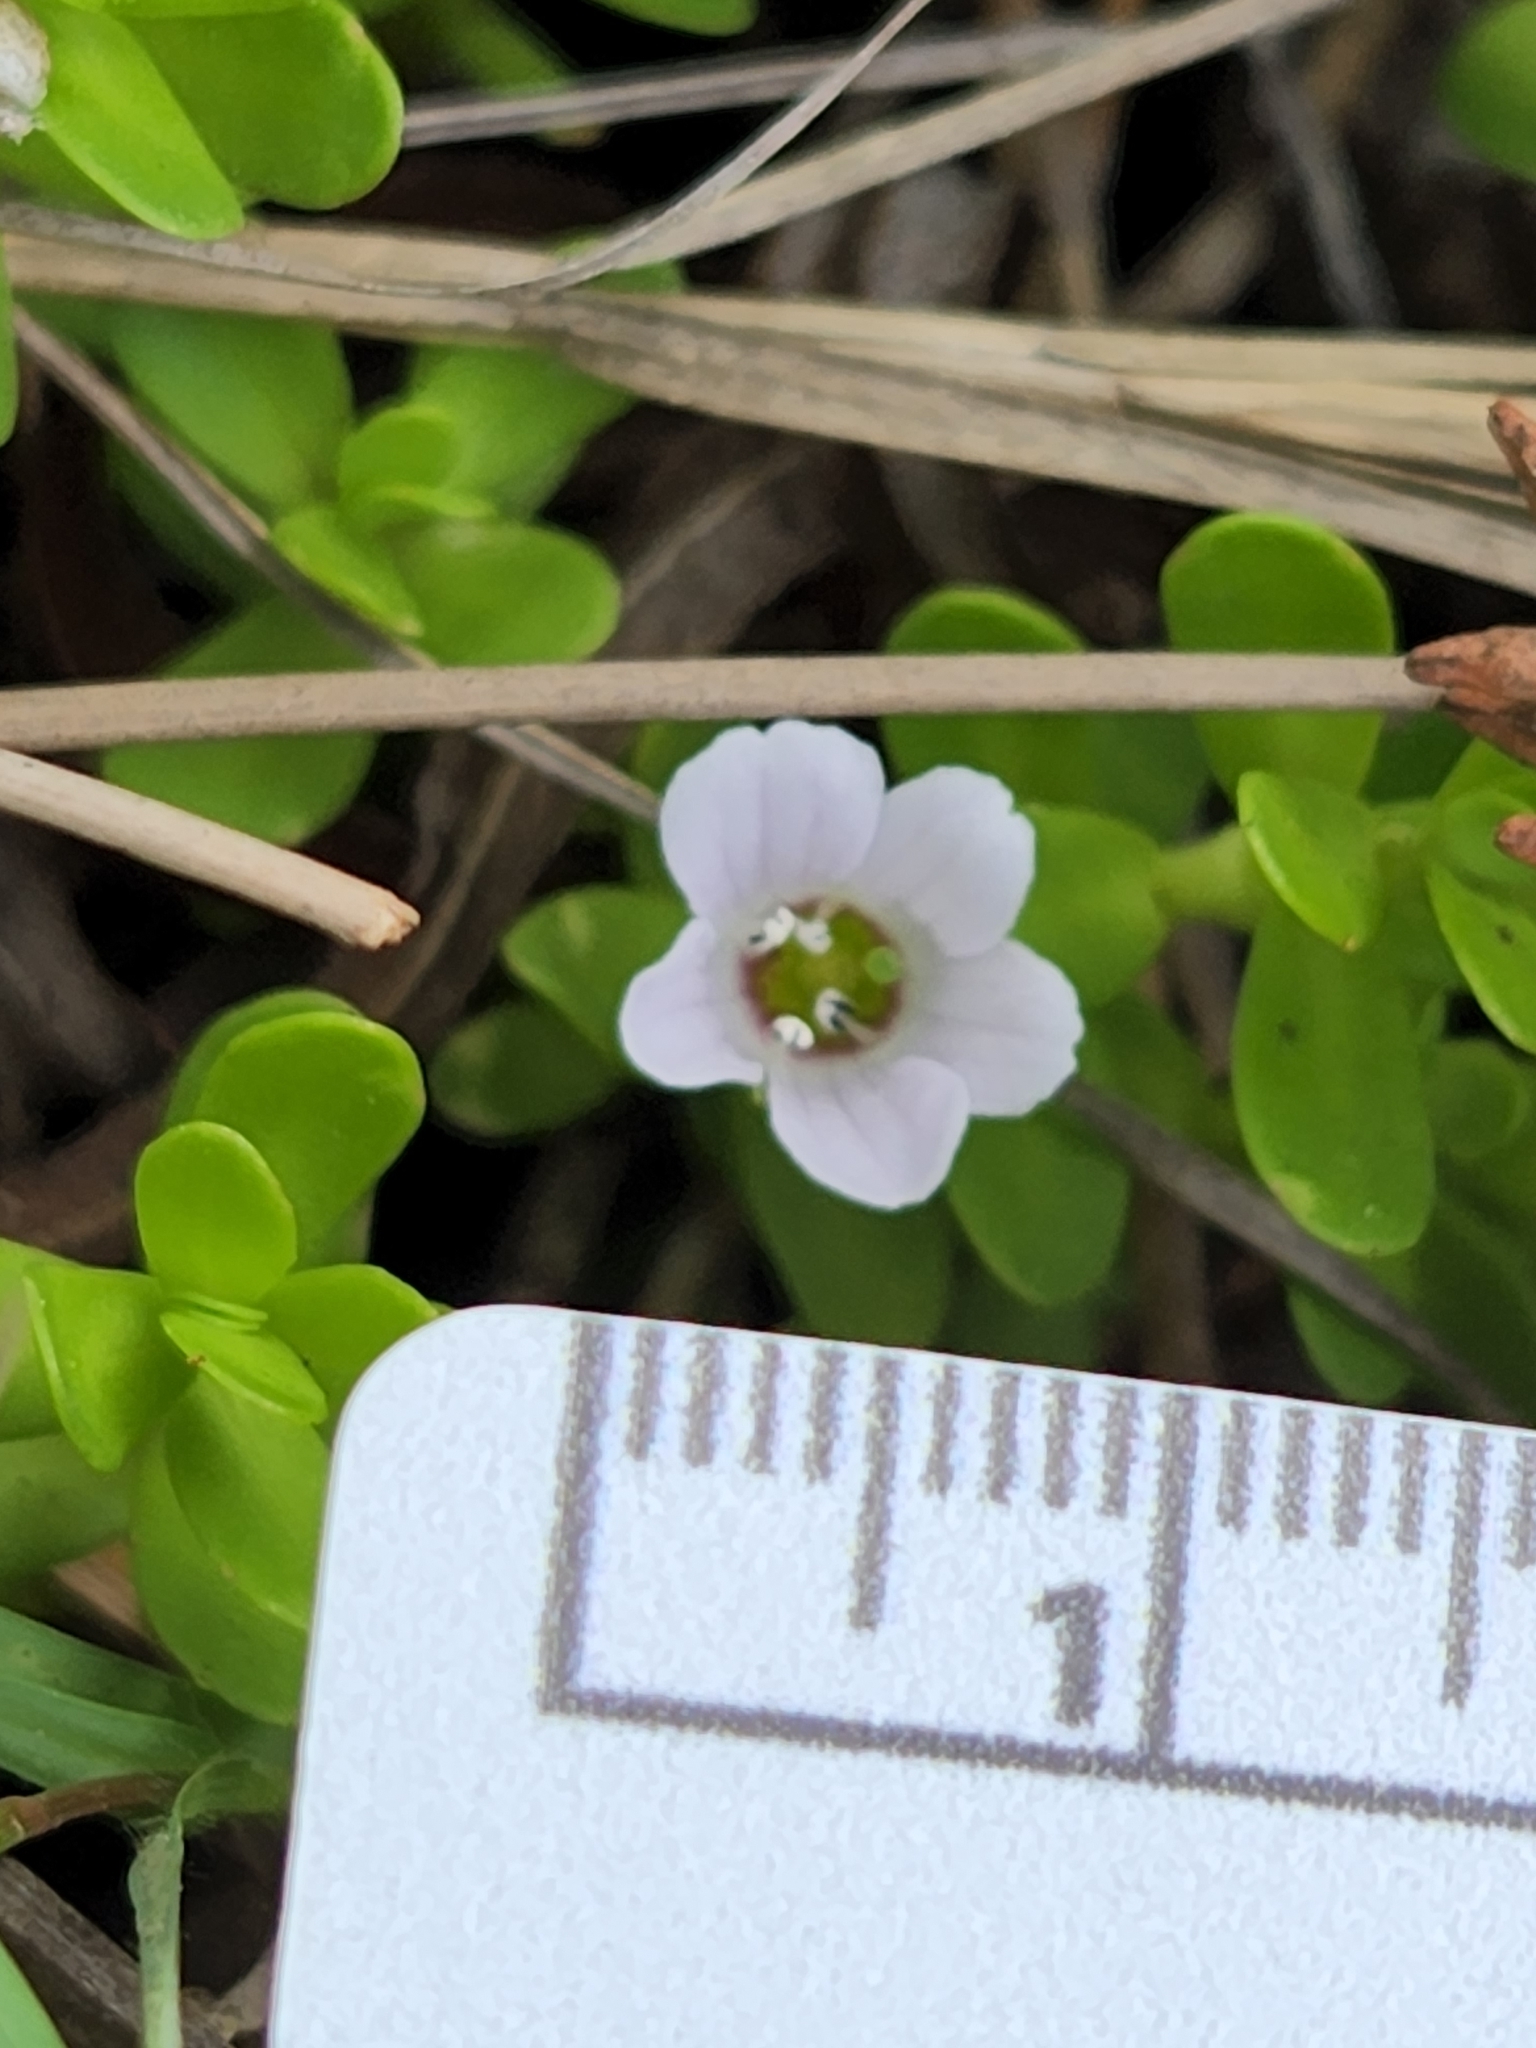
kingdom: Plantae
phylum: Tracheophyta
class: Magnoliopsida
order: Lamiales
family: Plantaginaceae
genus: Bacopa
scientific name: Bacopa monnieri
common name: Indian-pennywort
